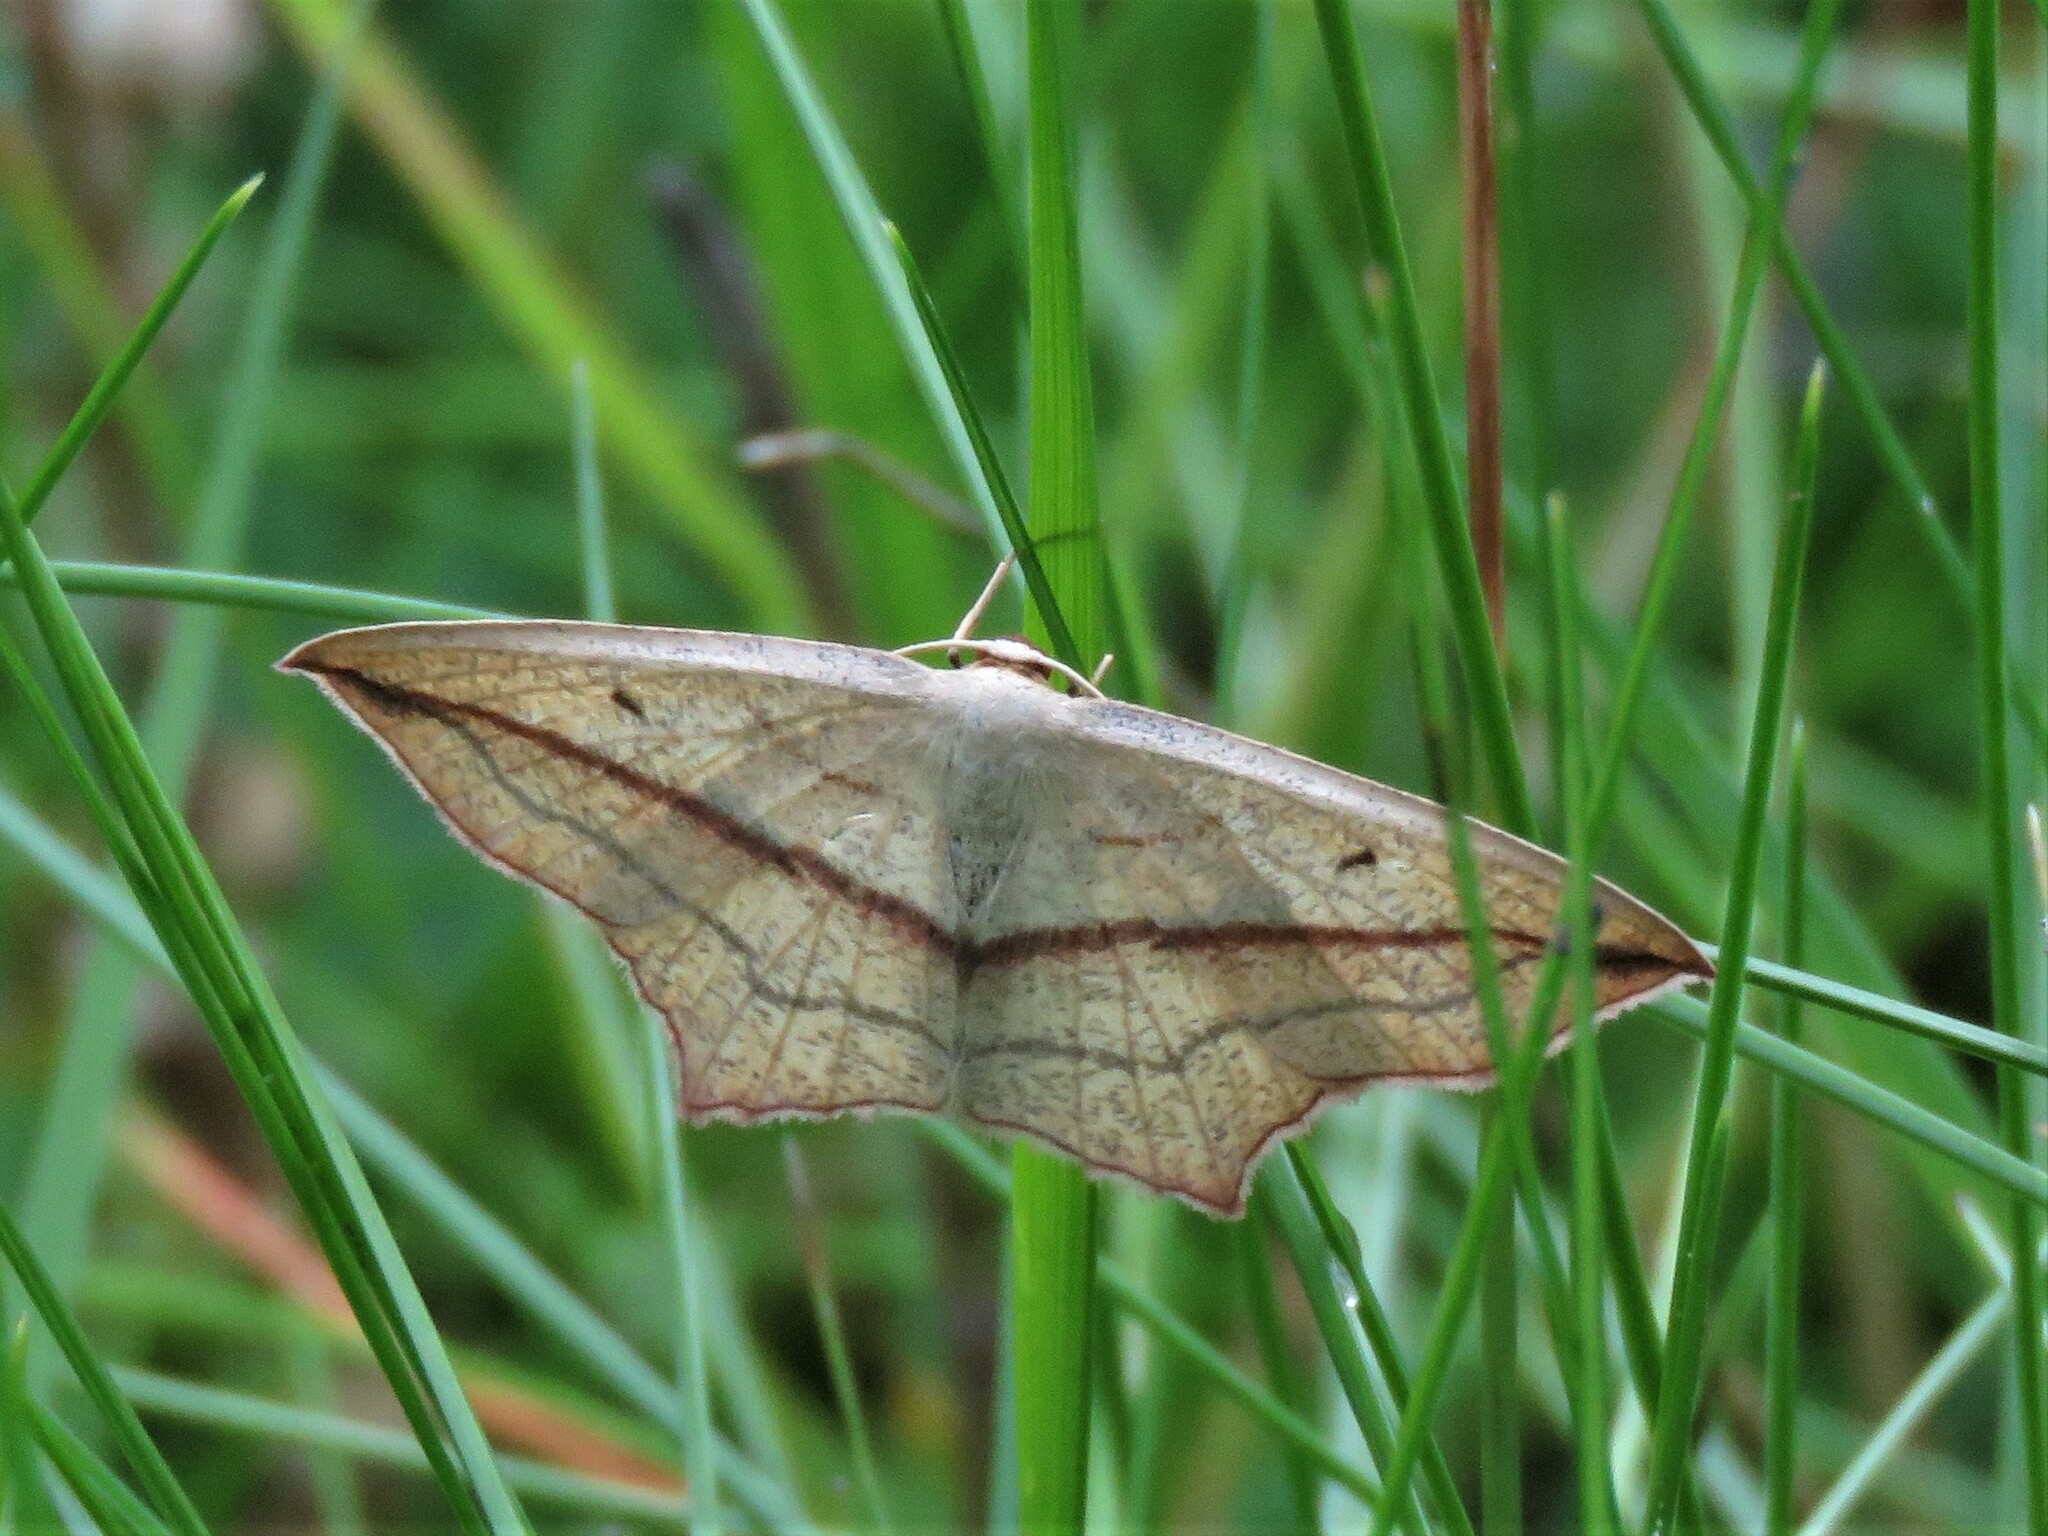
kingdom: Animalia
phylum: Arthropoda
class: Insecta
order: Lepidoptera
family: Geometridae
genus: Timandra
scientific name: Timandra comae
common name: Blood-vein
